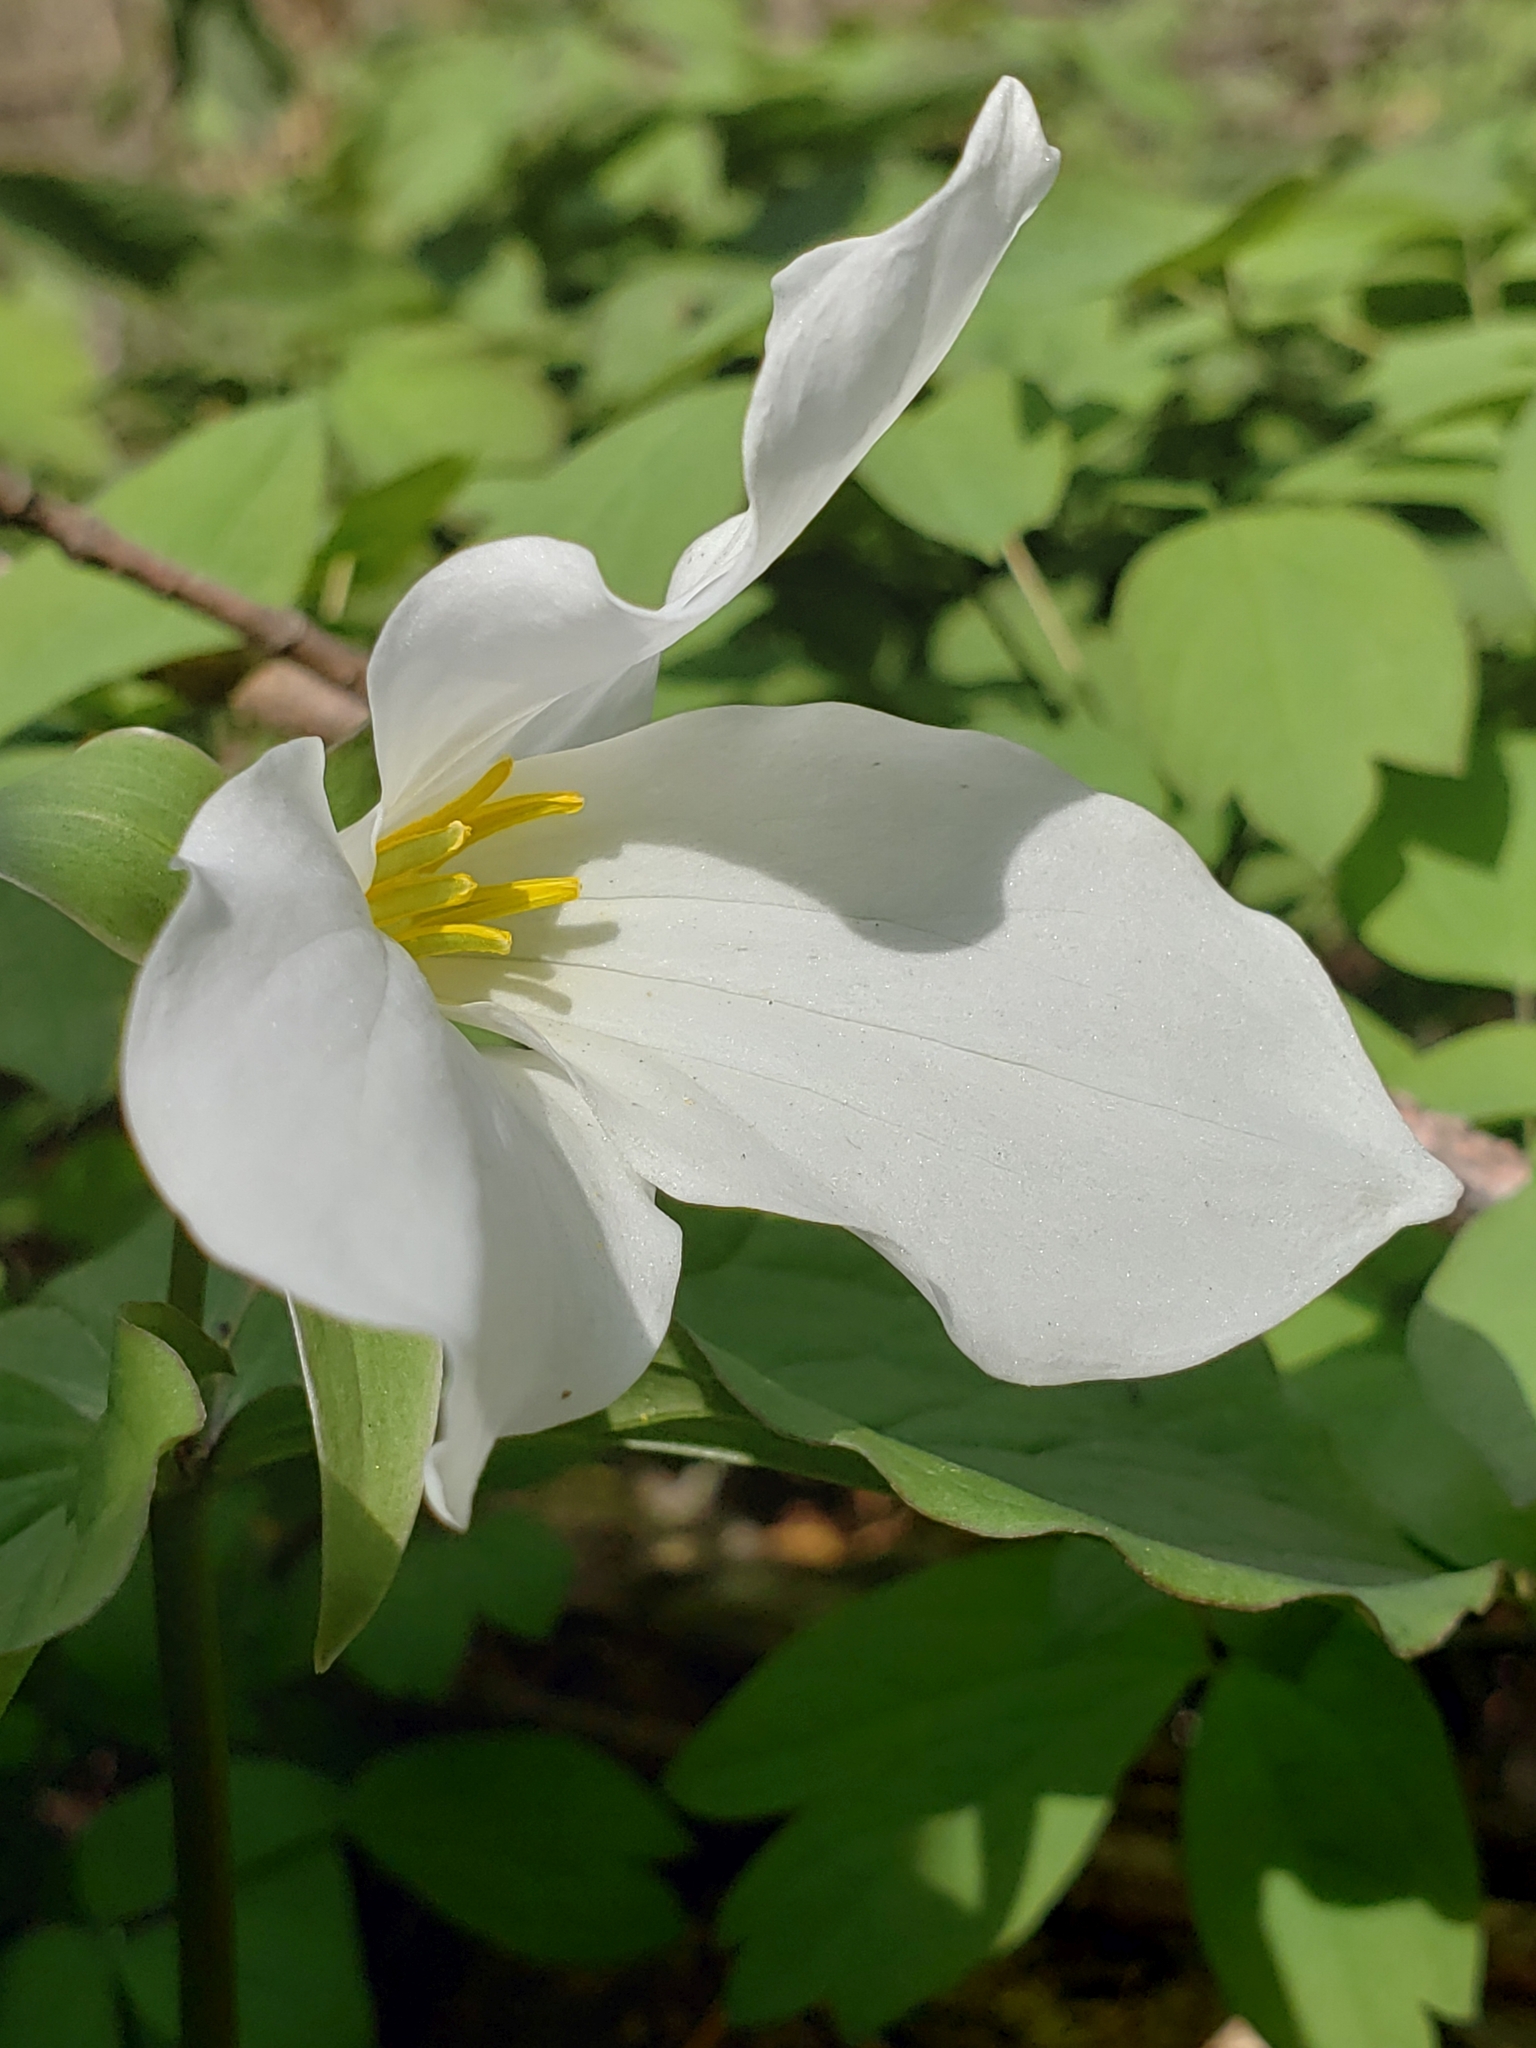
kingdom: Plantae
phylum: Tracheophyta
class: Liliopsida
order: Liliales
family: Melanthiaceae
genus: Trillium
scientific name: Trillium grandiflorum
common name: Great white trillium
